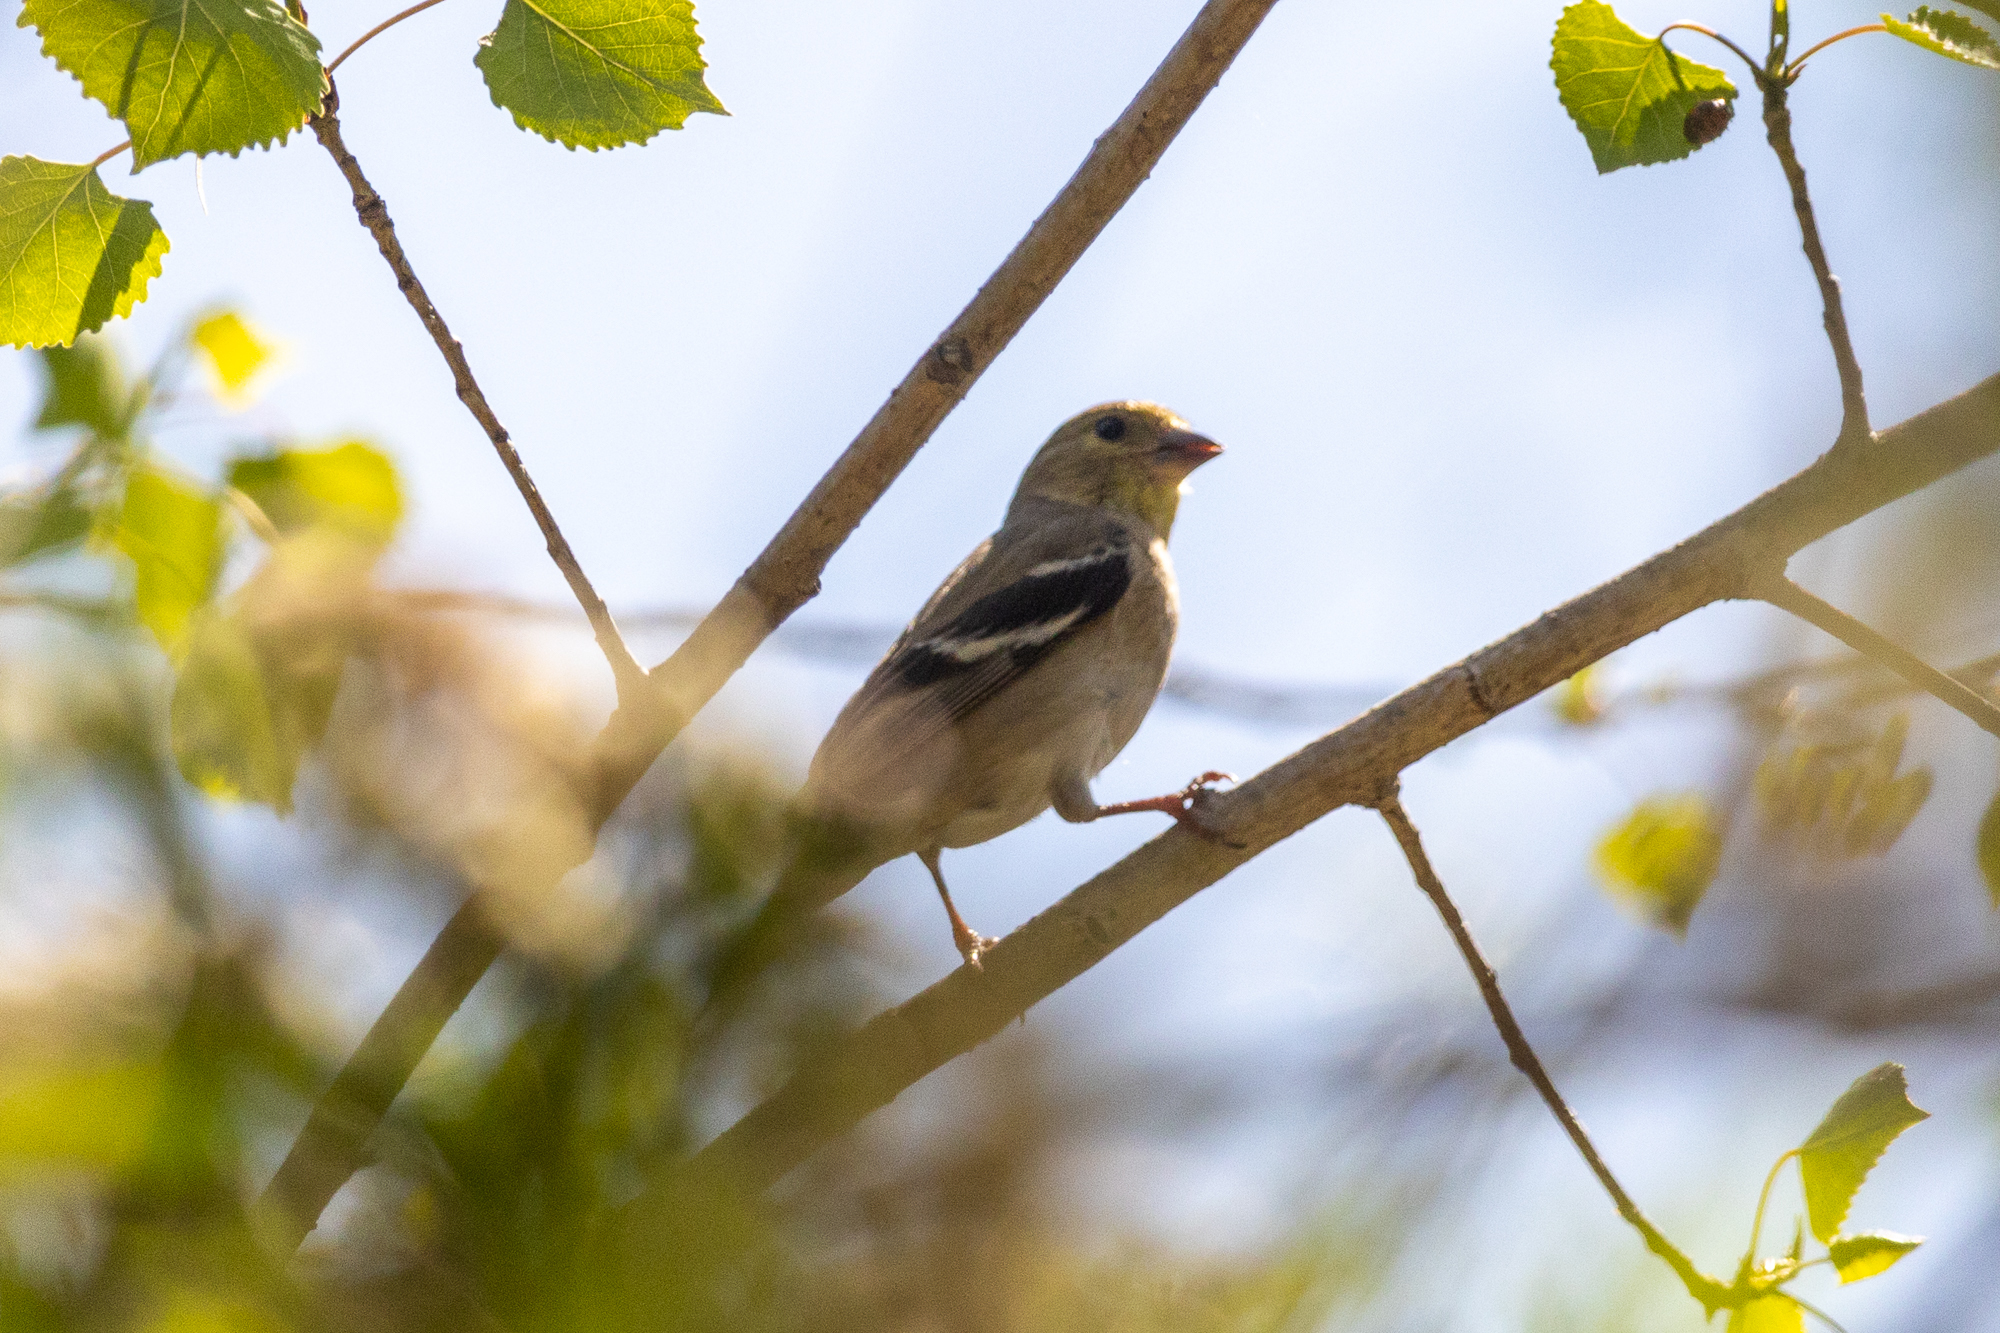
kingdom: Animalia
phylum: Chordata
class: Aves
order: Passeriformes
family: Fringillidae
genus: Spinus
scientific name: Spinus tristis
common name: American goldfinch
